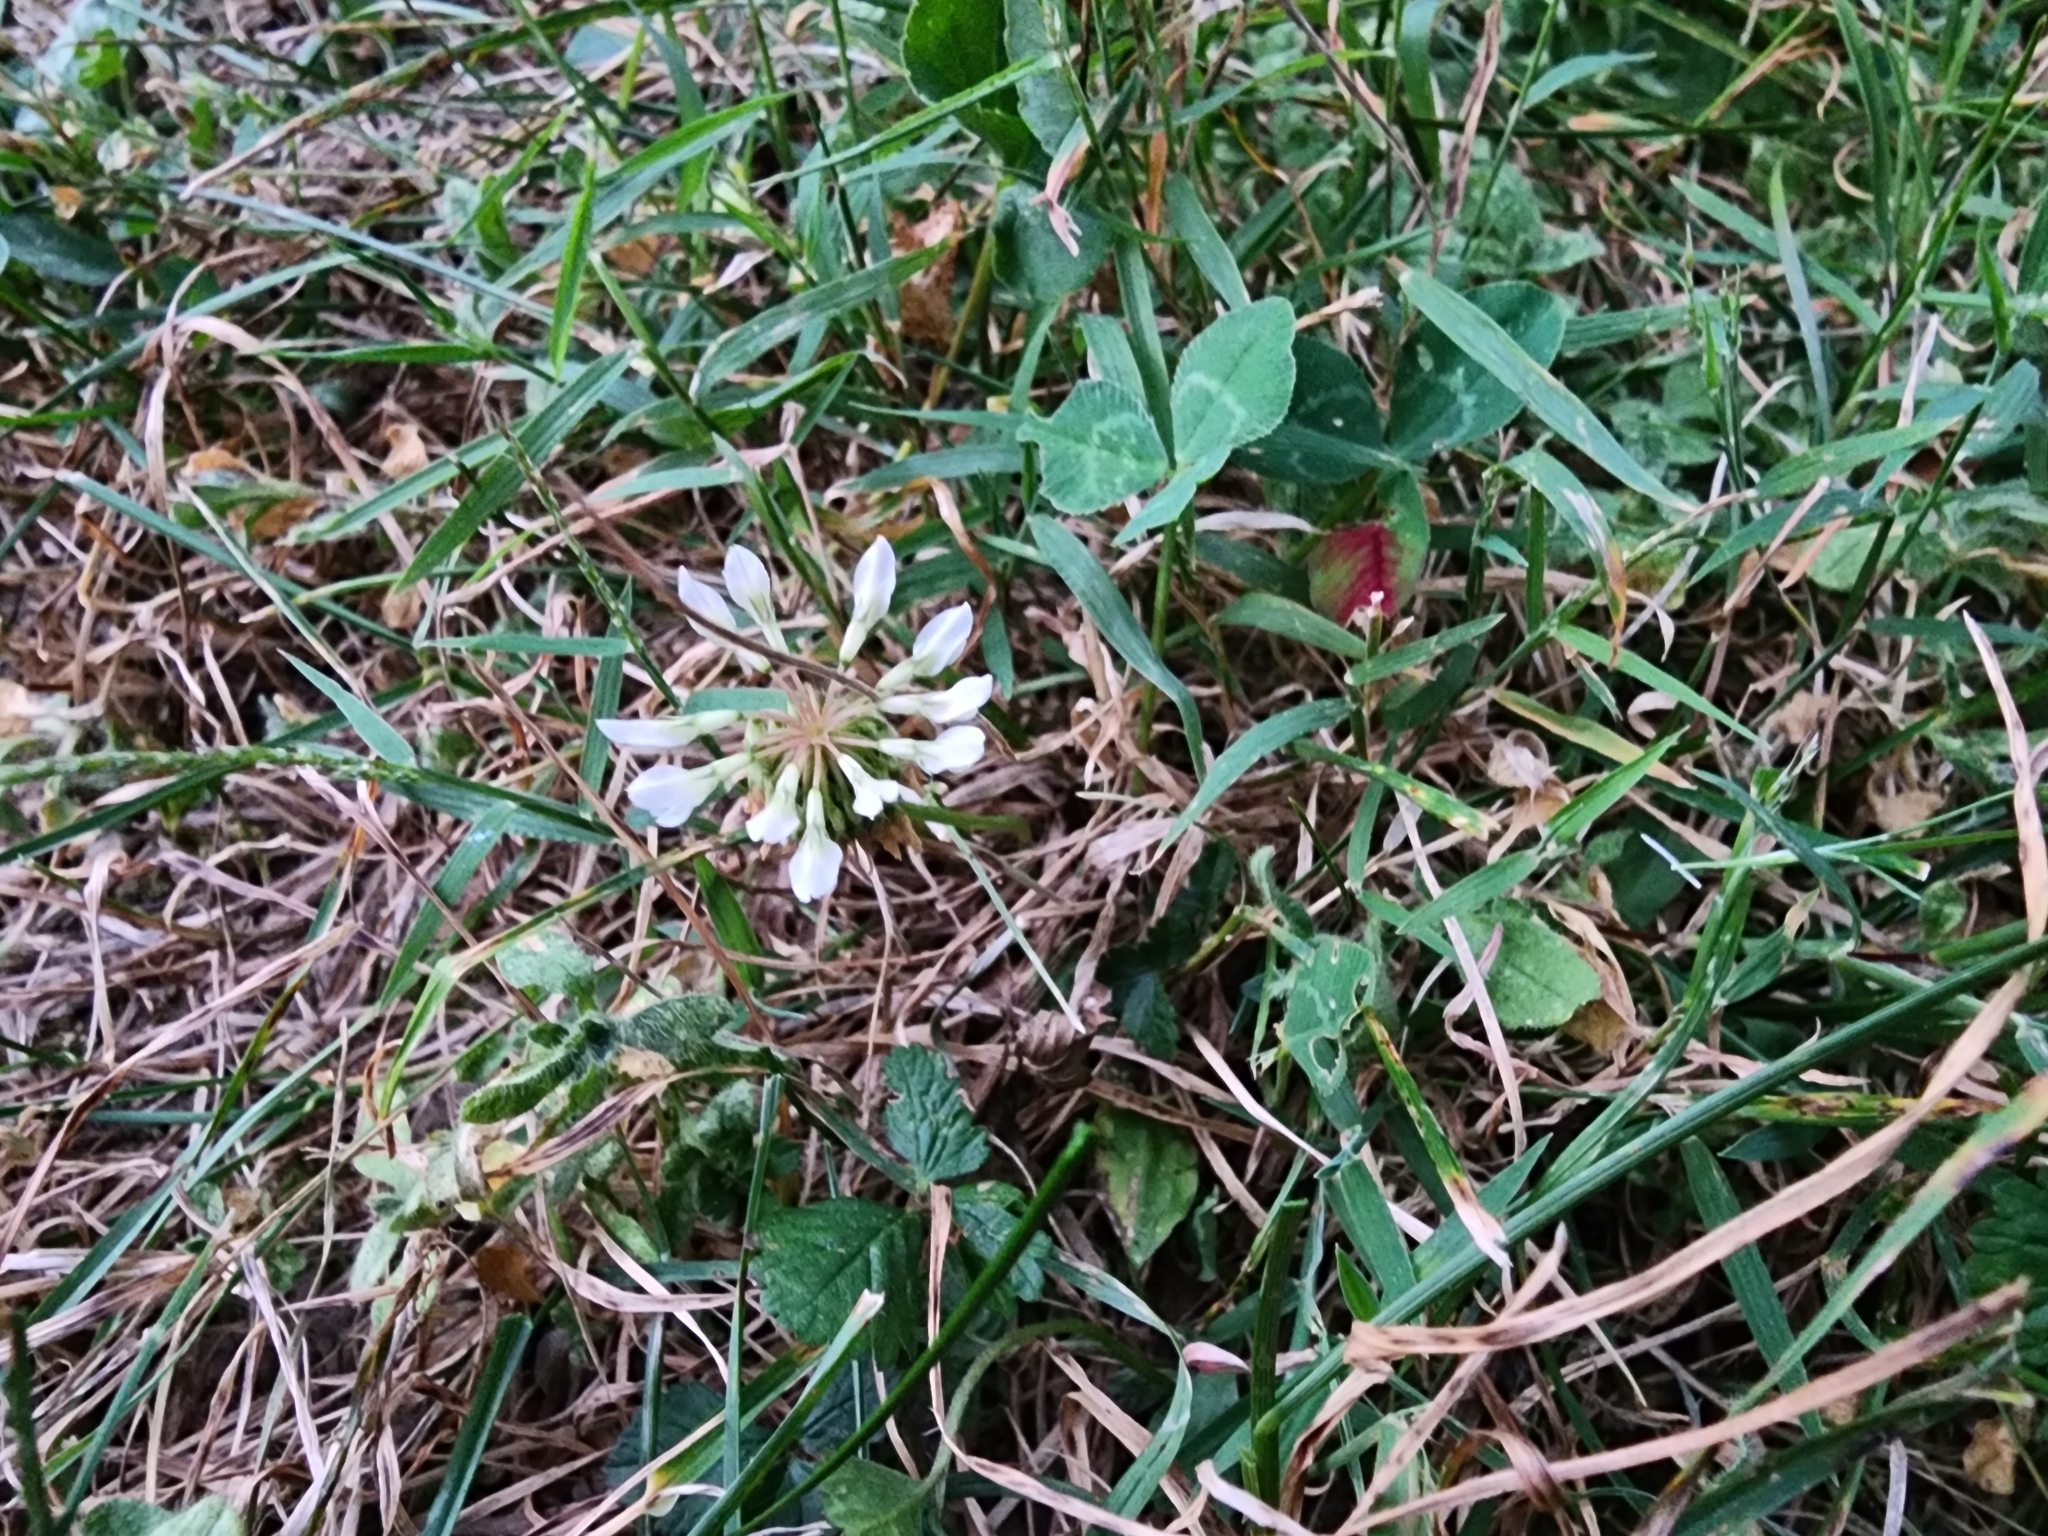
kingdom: Plantae
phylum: Tracheophyta
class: Magnoliopsida
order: Fabales
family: Fabaceae
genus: Trifolium
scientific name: Trifolium repens
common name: White clover
